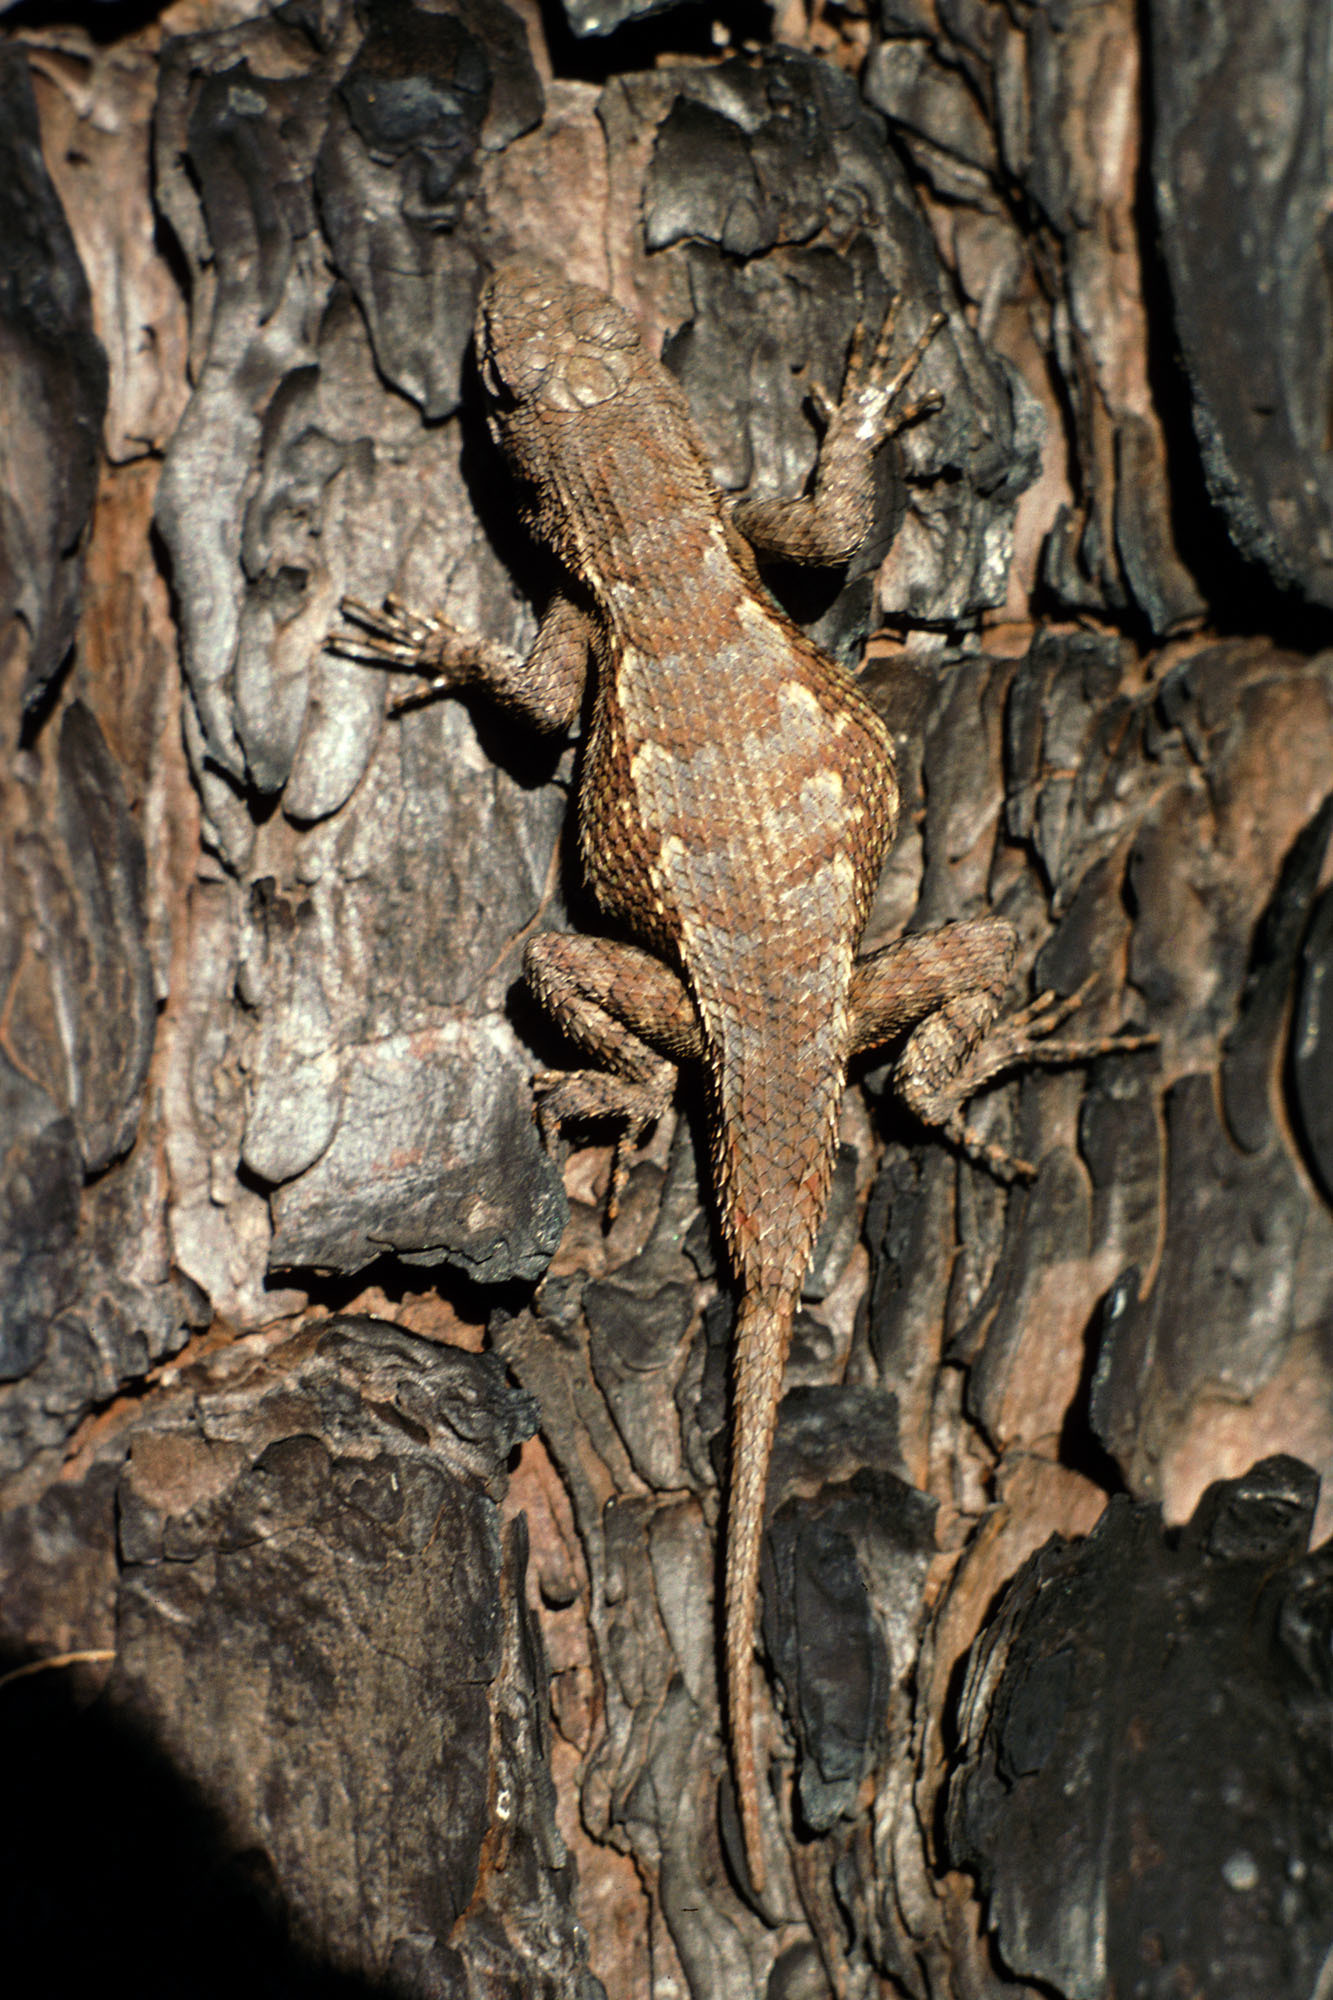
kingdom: Animalia
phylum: Chordata
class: Squamata
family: Phrynosomatidae
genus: Sceloporus
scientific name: Sceloporus consobrinus
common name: Southern prairie lizard
